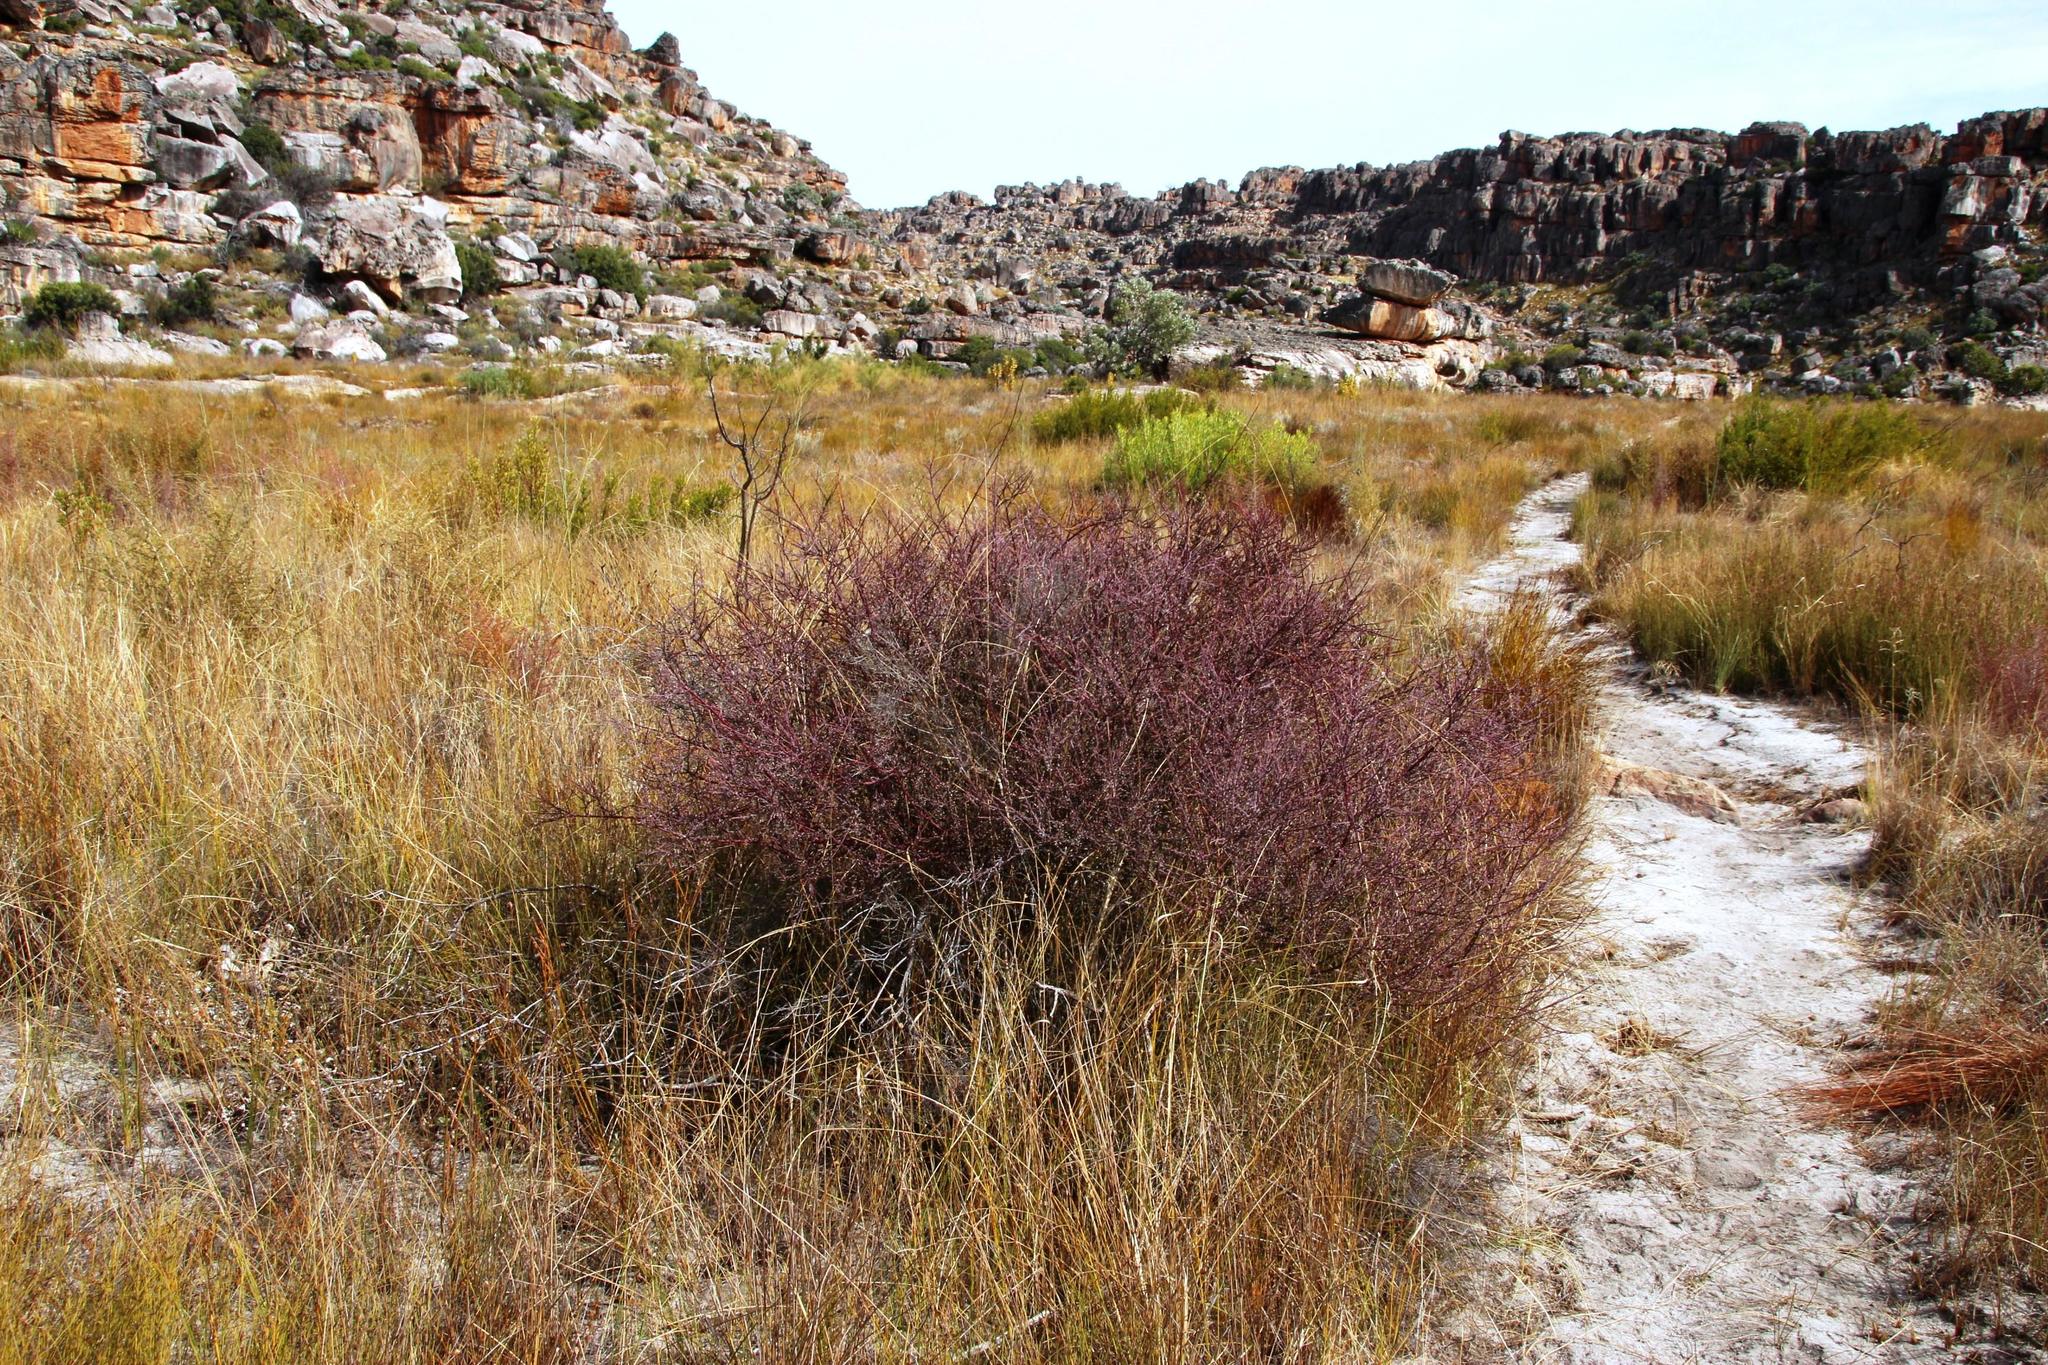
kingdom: Plantae
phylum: Tracheophyta
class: Magnoliopsida
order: Fabales
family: Polygalaceae
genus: Muraltia
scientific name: Muraltia spinosa
